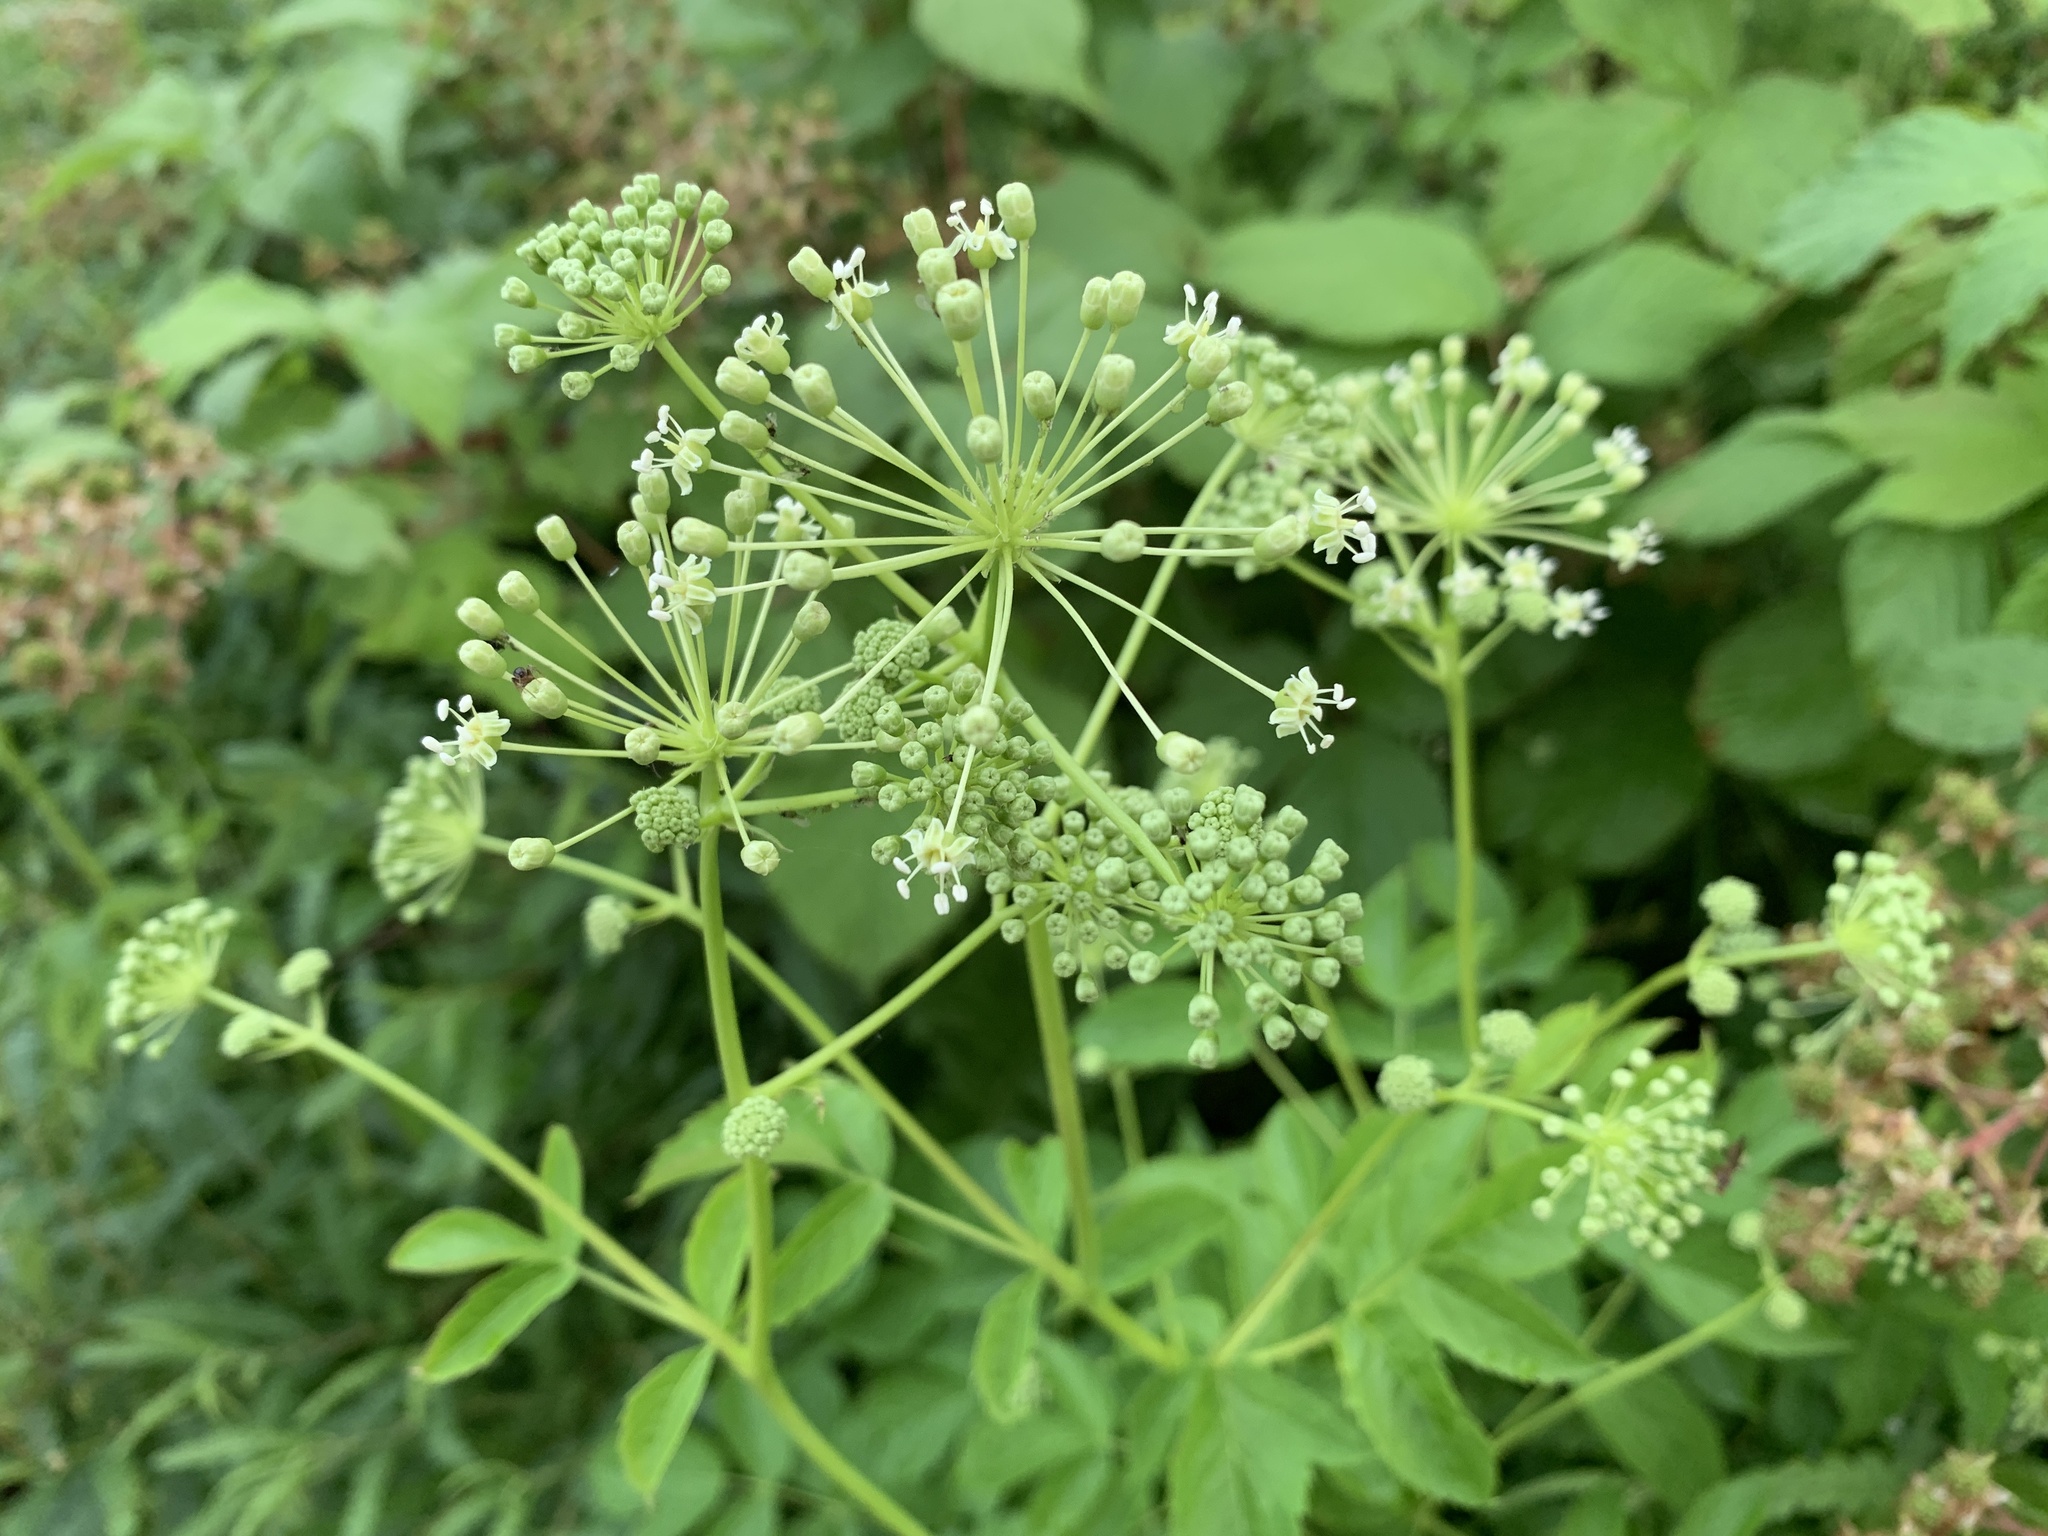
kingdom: Plantae
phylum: Tracheophyta
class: Magnoliopsida
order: Apiales
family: Araliaceae
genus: Aralia
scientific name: Aralia hispida
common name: Bristly sarsaparilla
